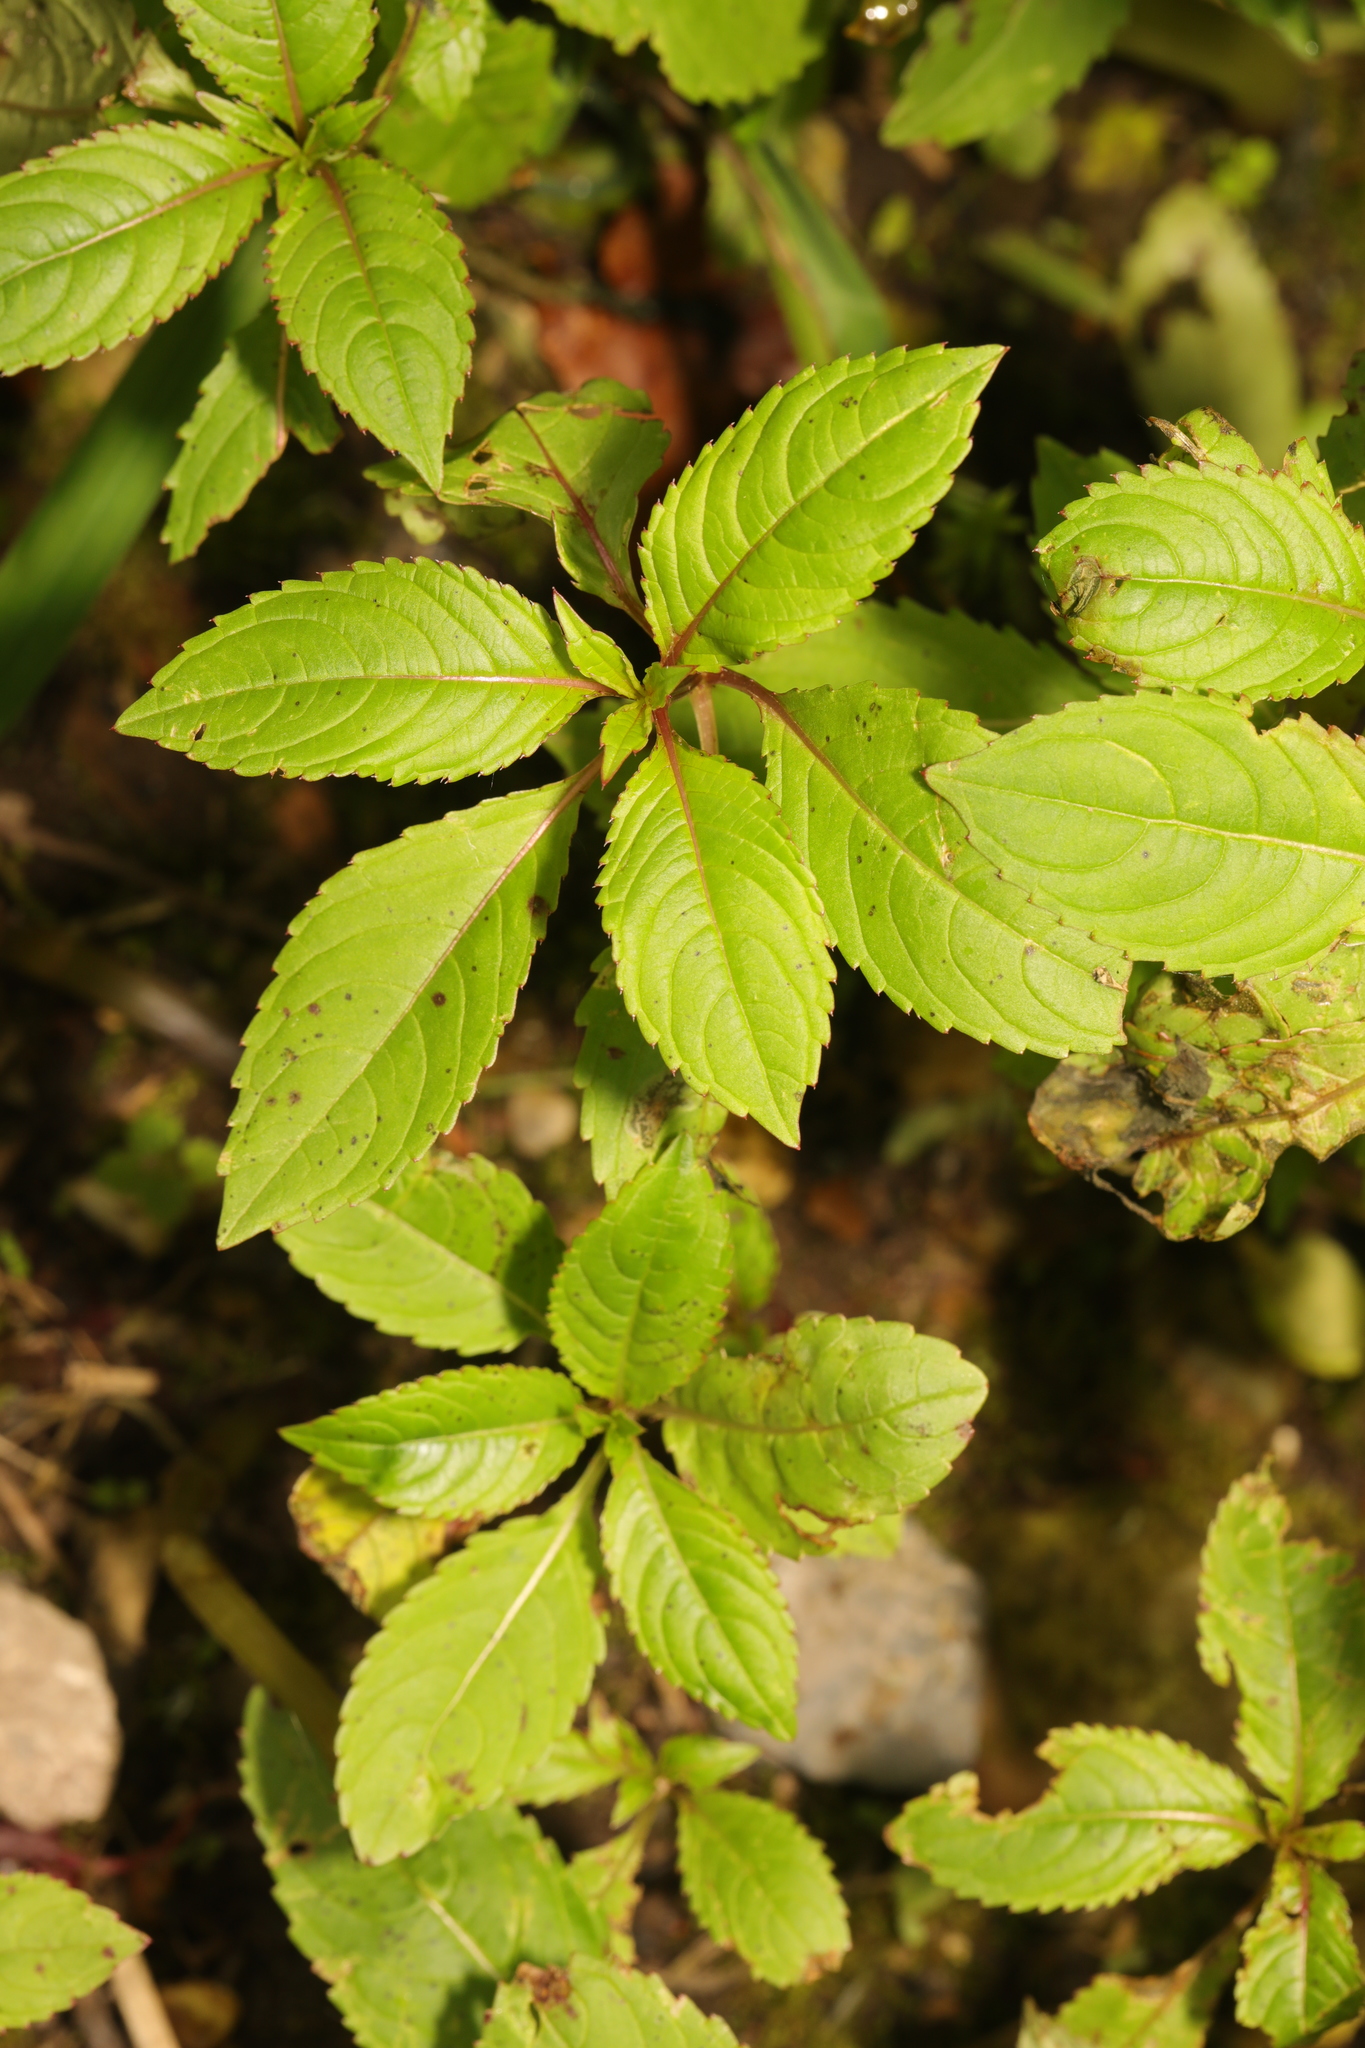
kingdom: Plantae
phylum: Tracheophyta
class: Magnoliopsida
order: Ericales
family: Balsaminaceae
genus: Impatiens
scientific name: Impatiens glandulifera
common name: Himalayan balsam
